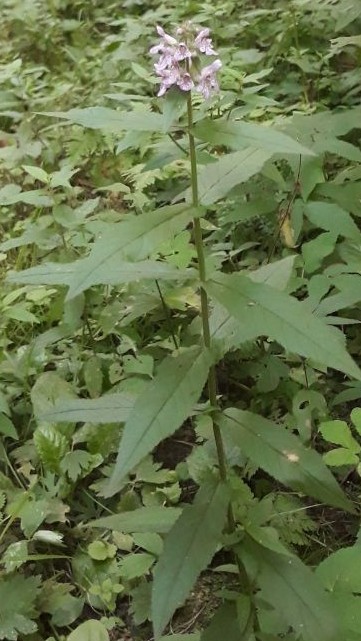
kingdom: Plantae
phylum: Tracheophyta
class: Magnoliopsida
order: Lamiales
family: Lamiaceae
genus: Stachys
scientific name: Stachys palustris
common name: Marsh woundwort
